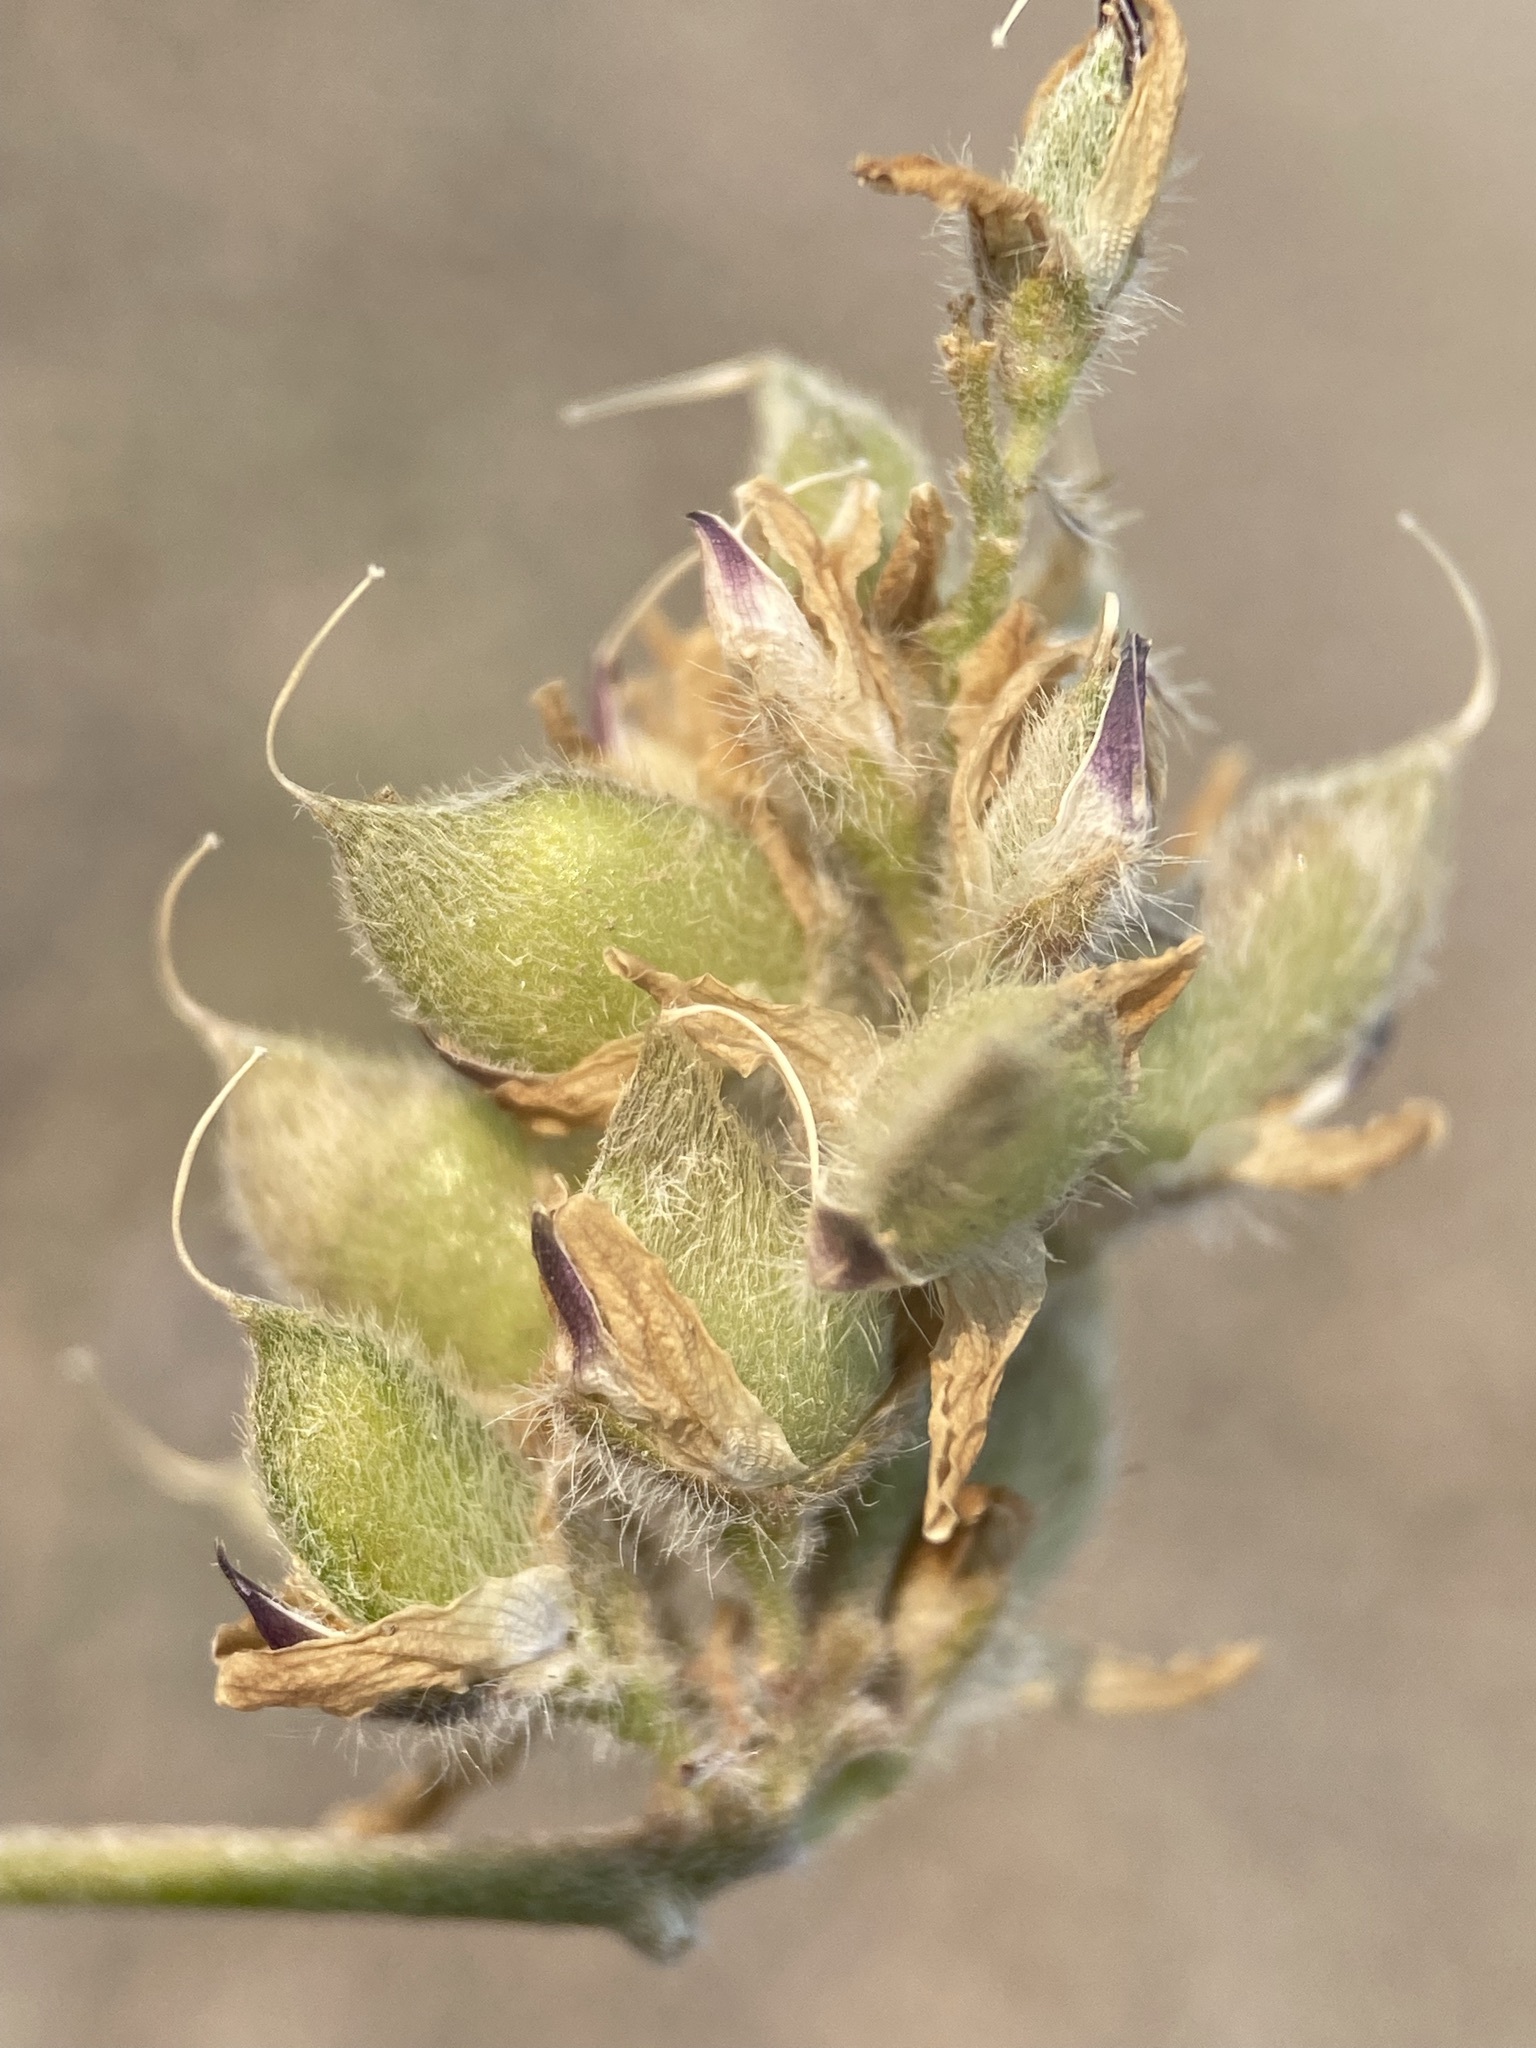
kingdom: Plantae
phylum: Tracheophyta
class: Magnoliopsida
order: Fabales
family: Fabaceae
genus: Lupinus
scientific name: Lupinus lepidus
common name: Prairie lupine
